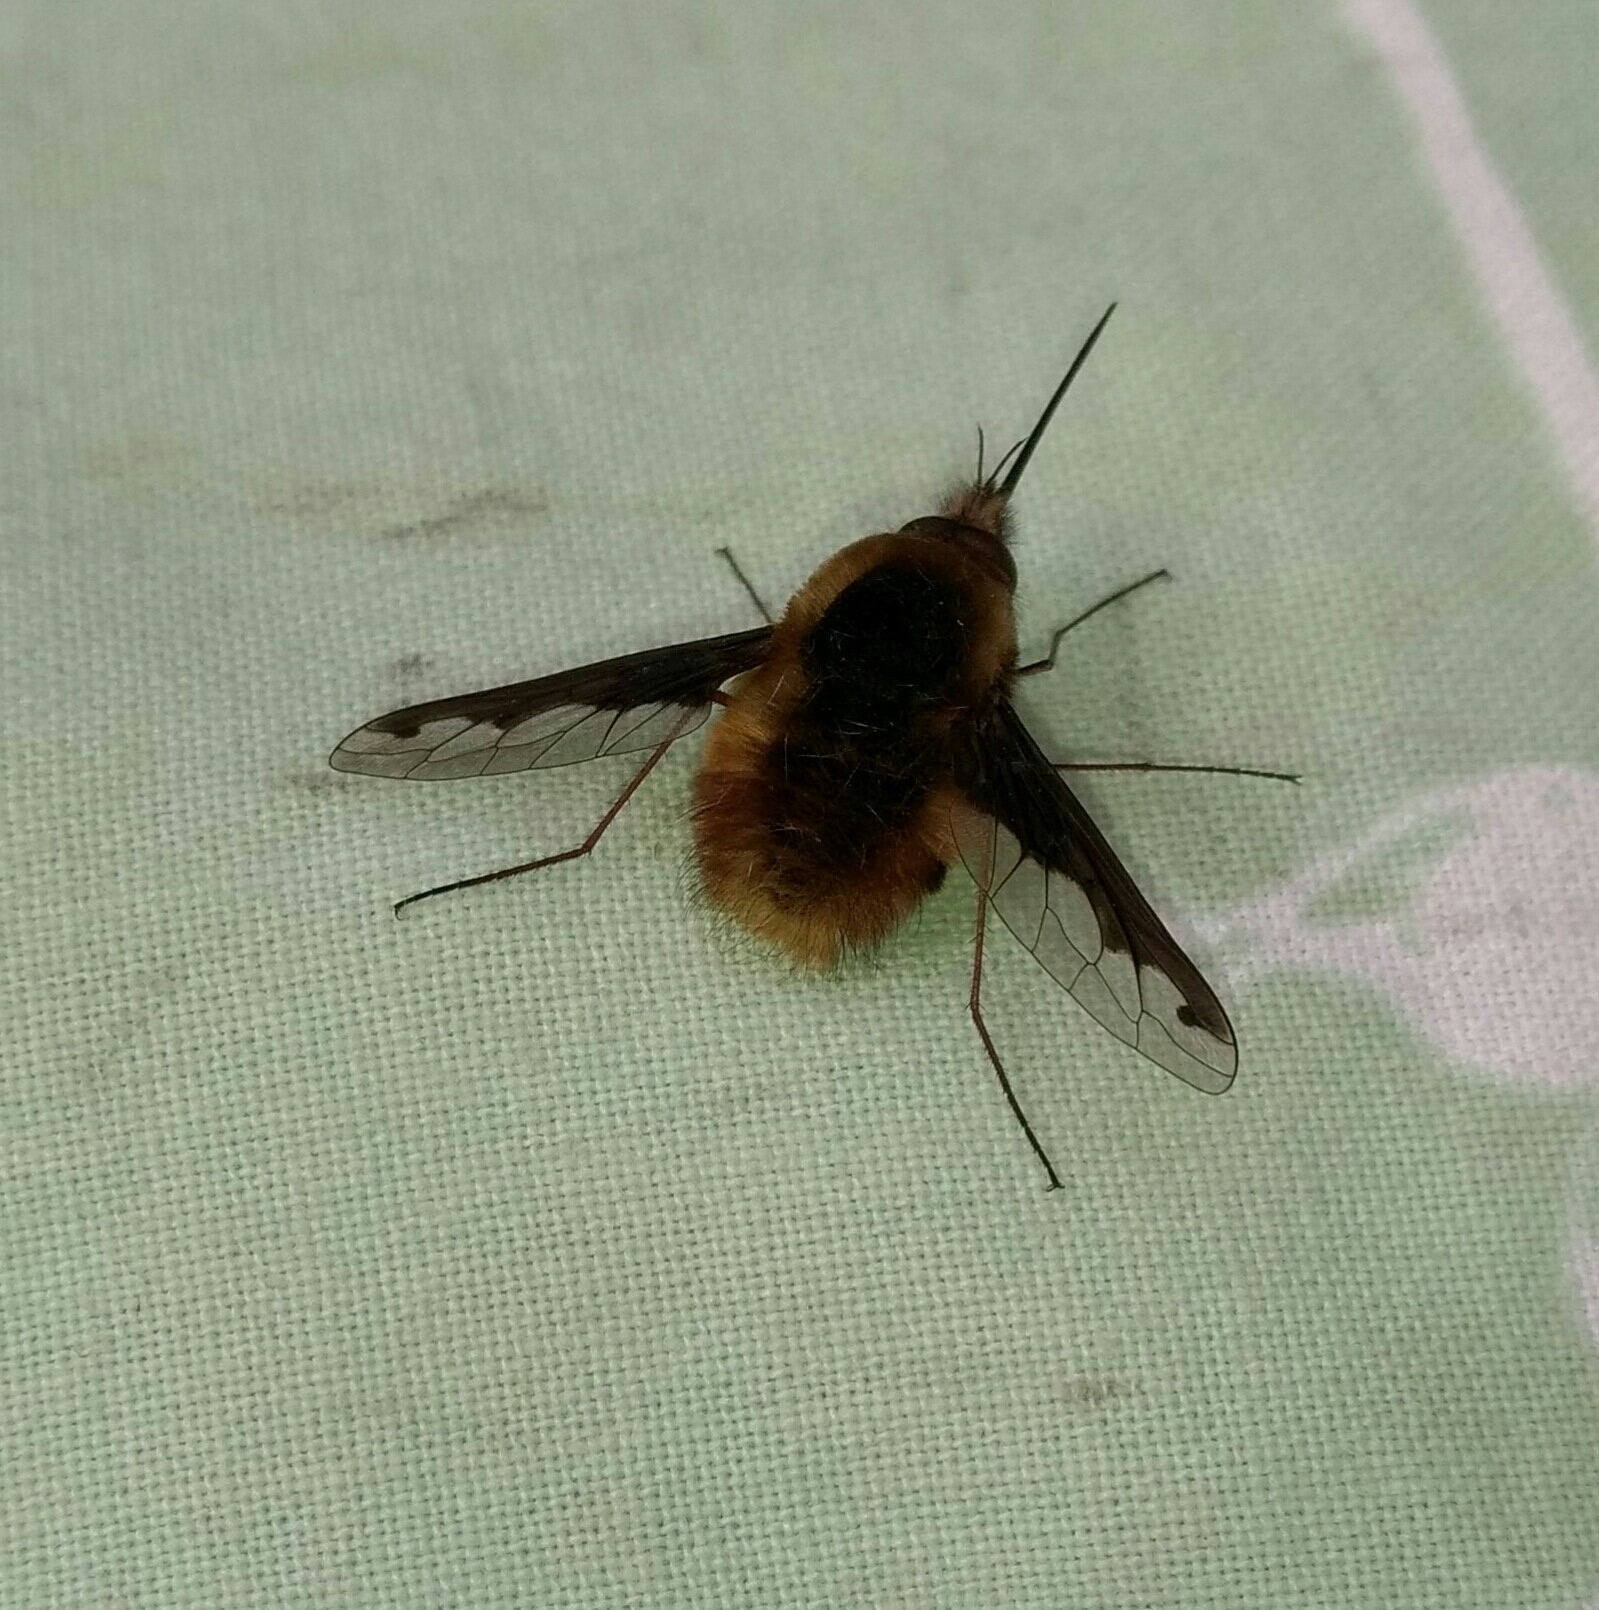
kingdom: Animalia
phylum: Arthropoda
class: Insecta
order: Diptera
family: Bombyliidae
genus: Bombylius
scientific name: Bombylius major
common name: Bee fly
